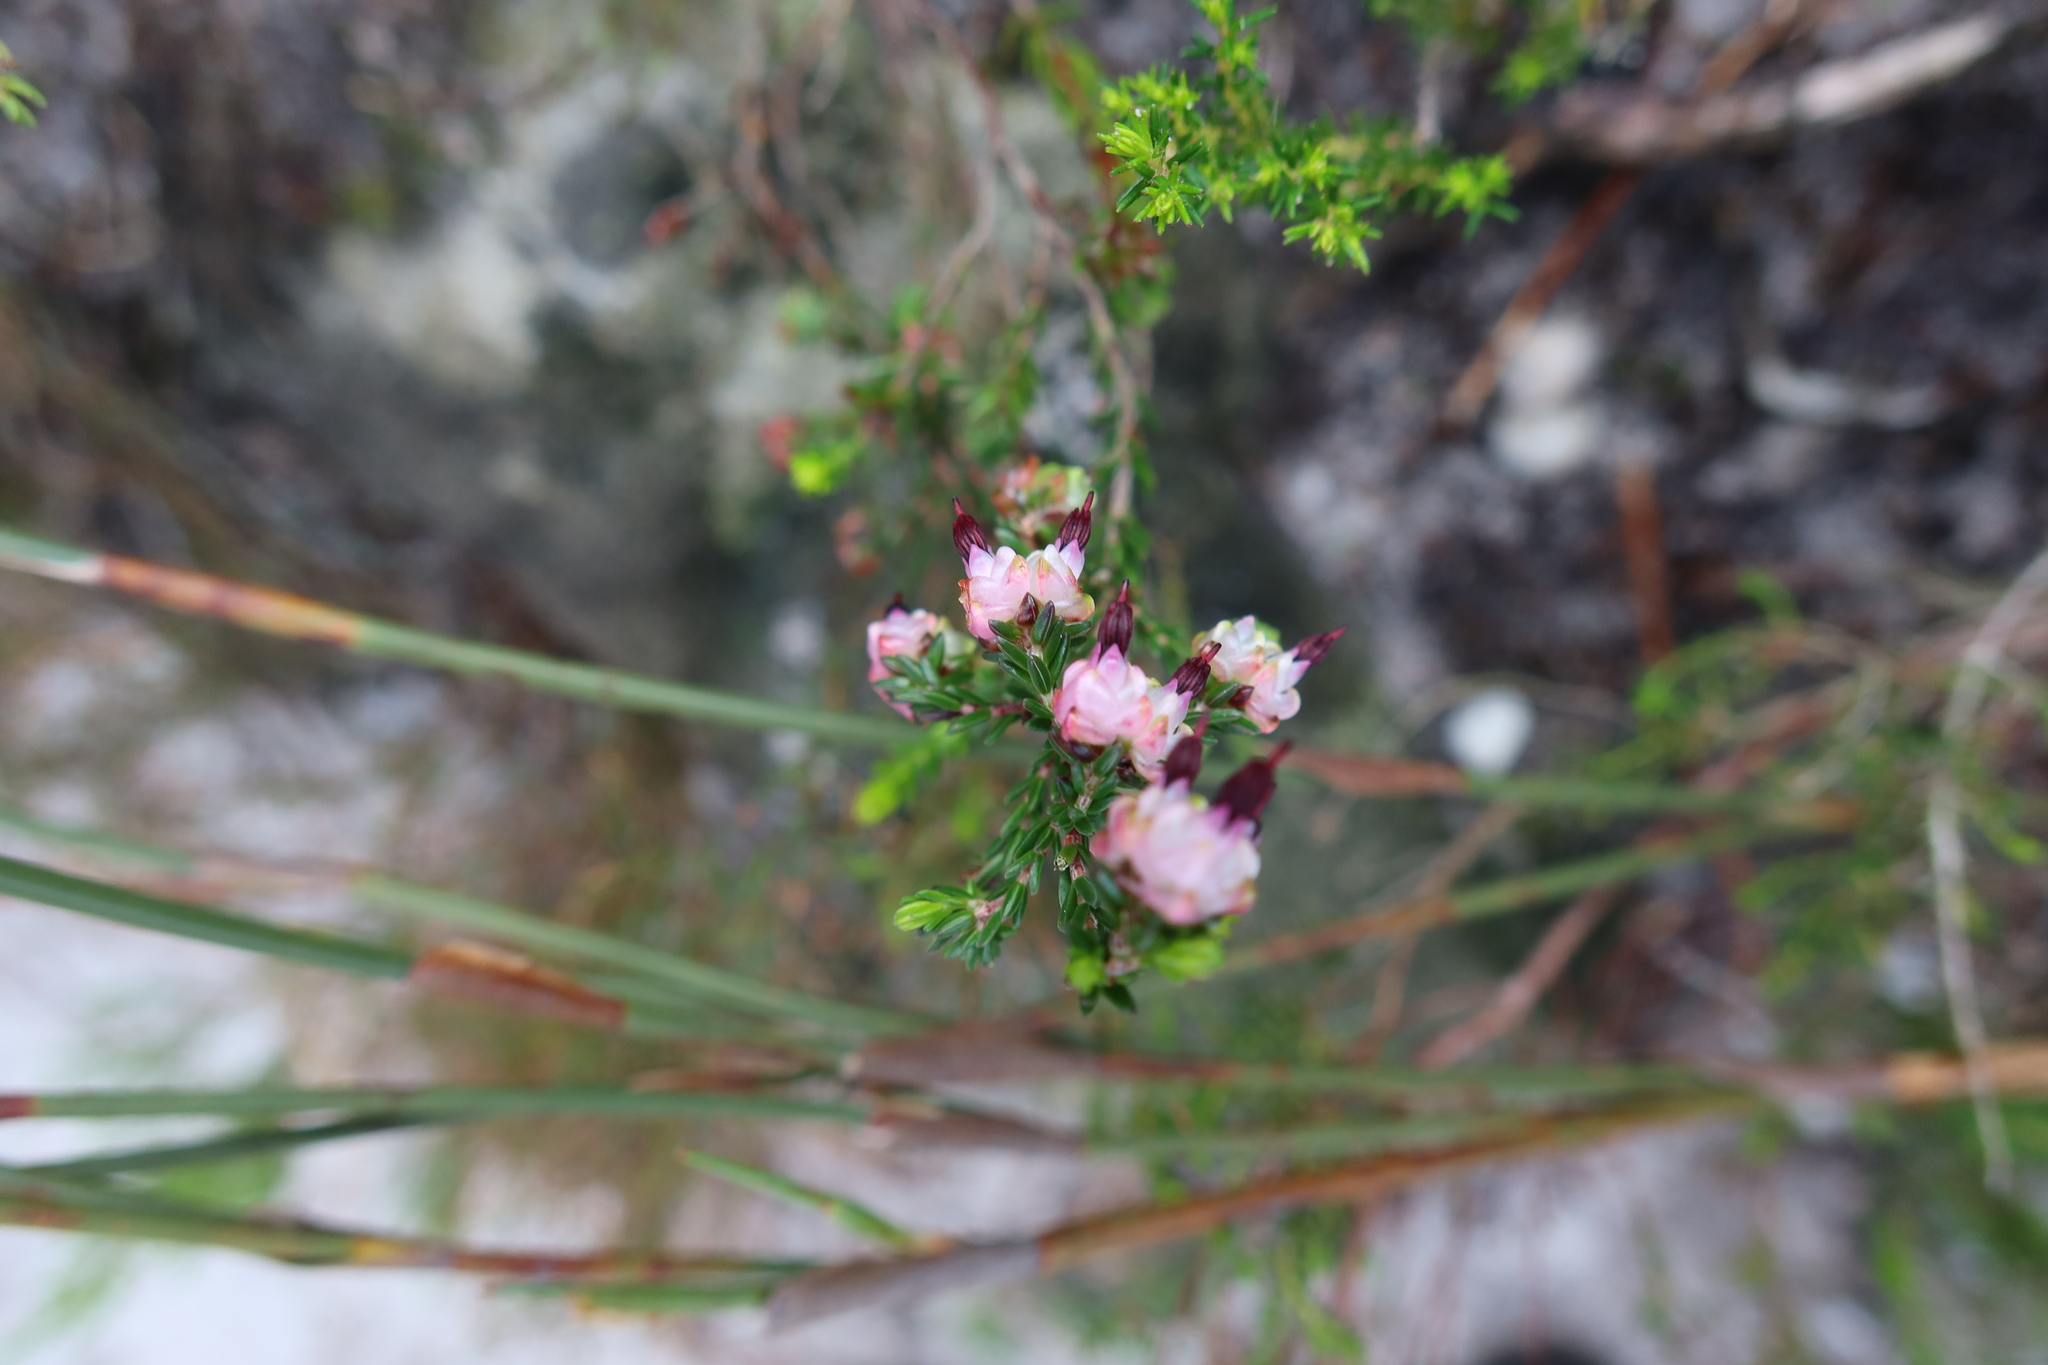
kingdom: Plantae
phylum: Tracheophyta
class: Magnoliopsida
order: Ericales
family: Ericaceae
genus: Erica
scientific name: Erica spumosa
